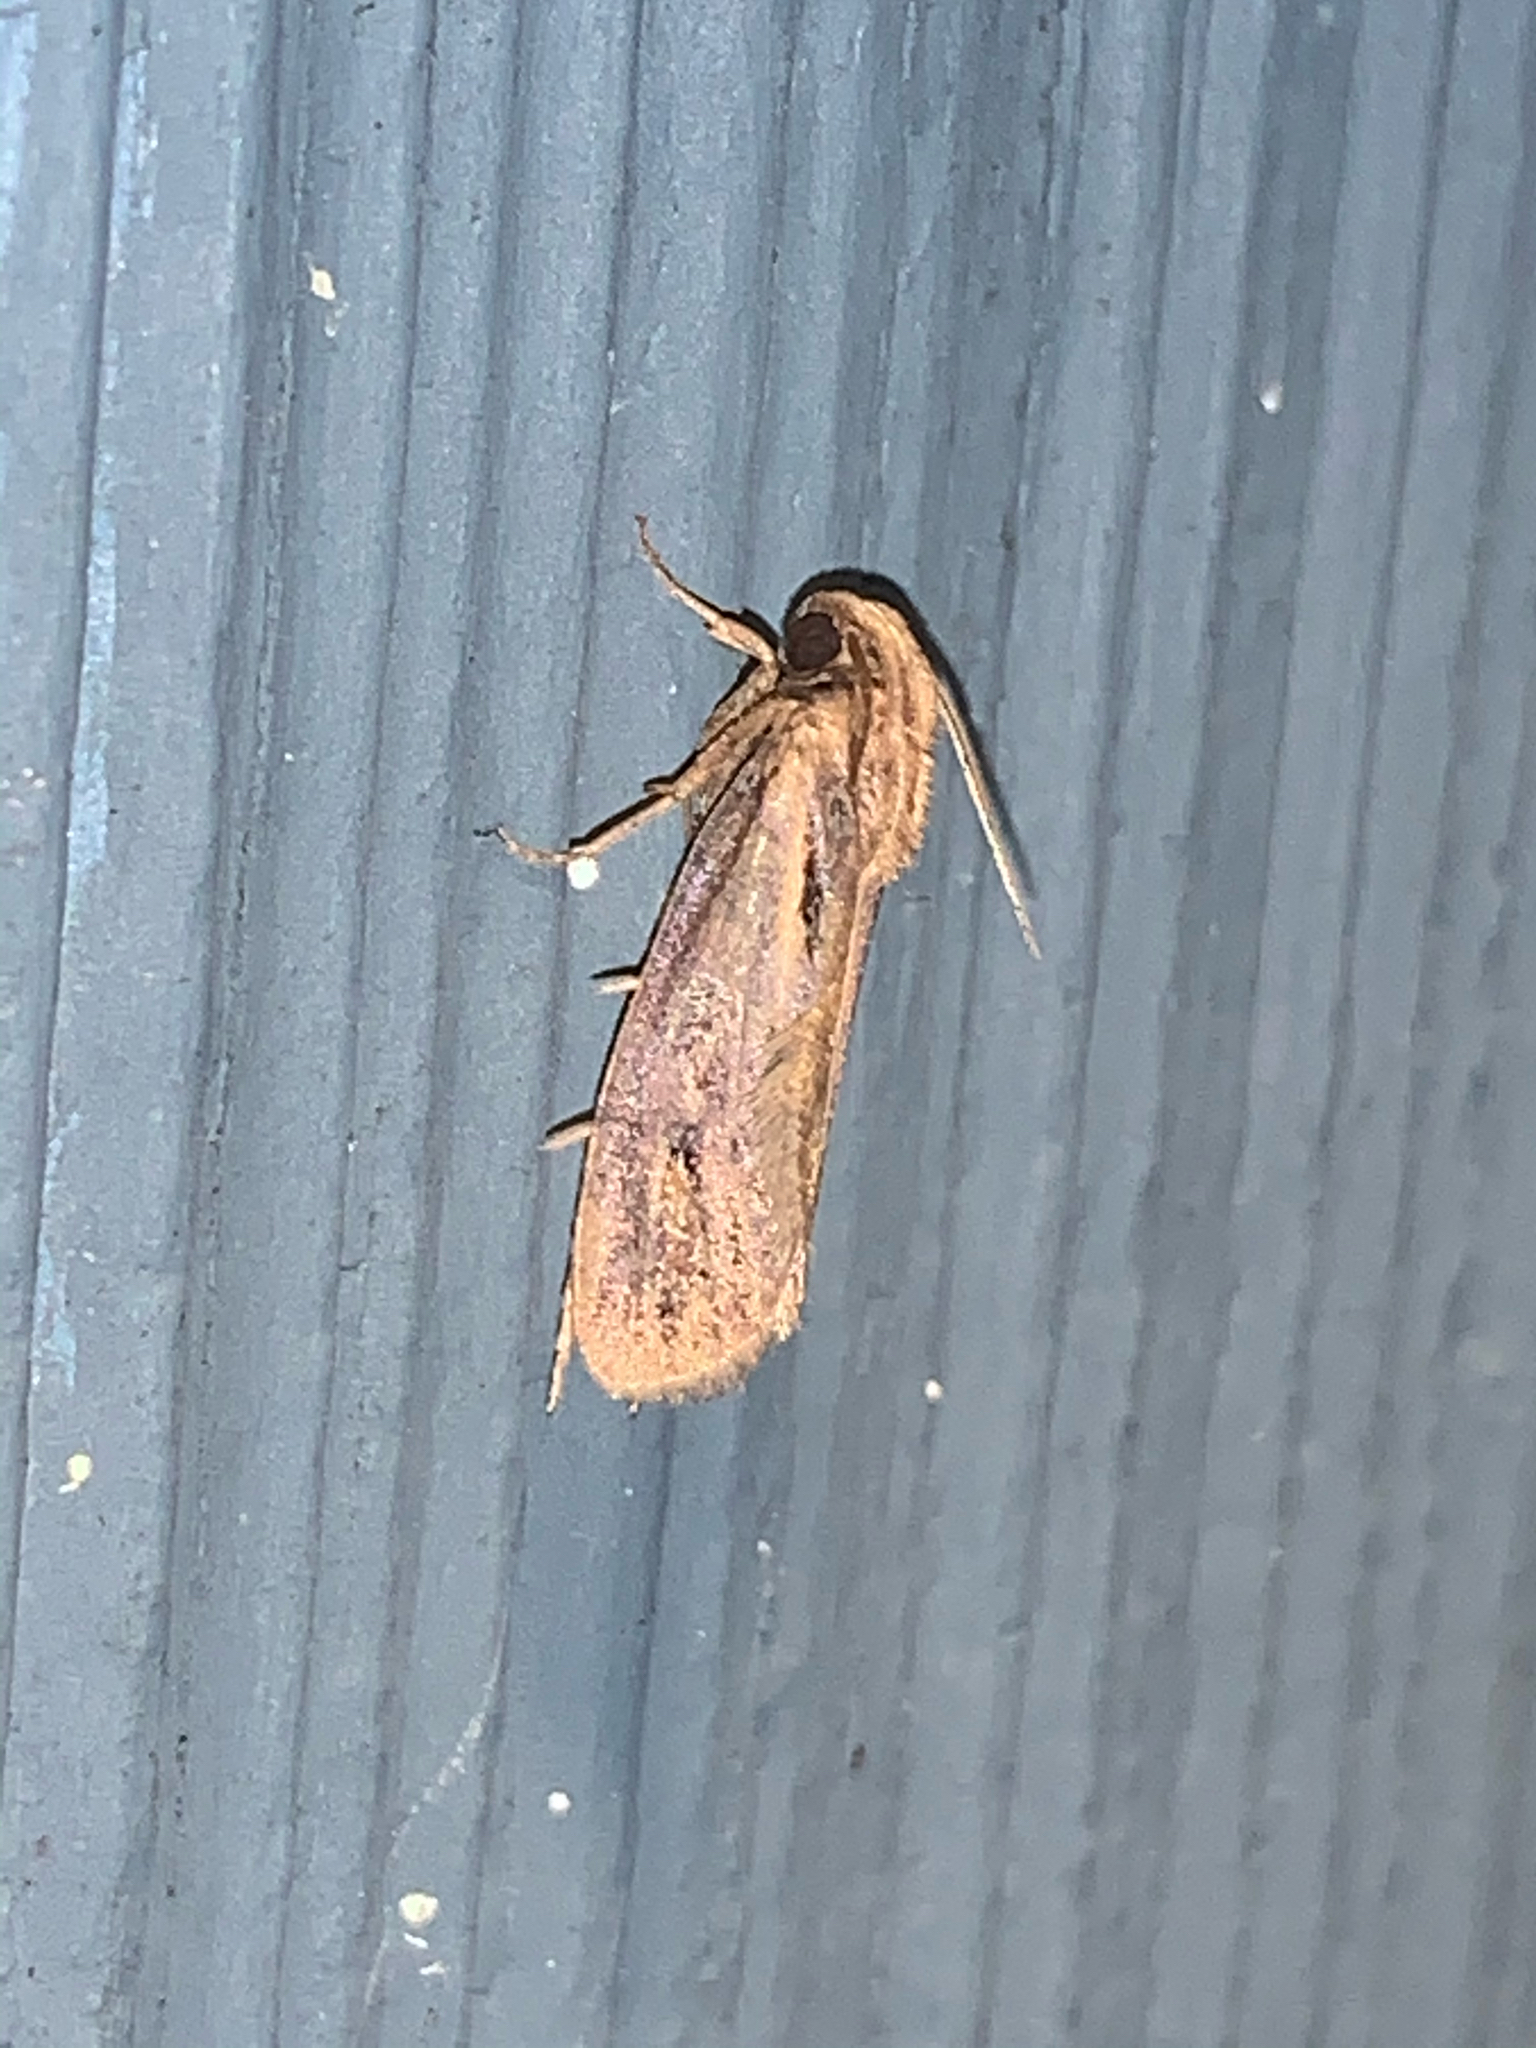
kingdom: Animalia
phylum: Arthropoda
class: Insecta
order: Lepidoptera
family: Tineidae
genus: Acrolophus
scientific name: Acrolophus popeanella
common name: Clemens' grass tubeworm moth
